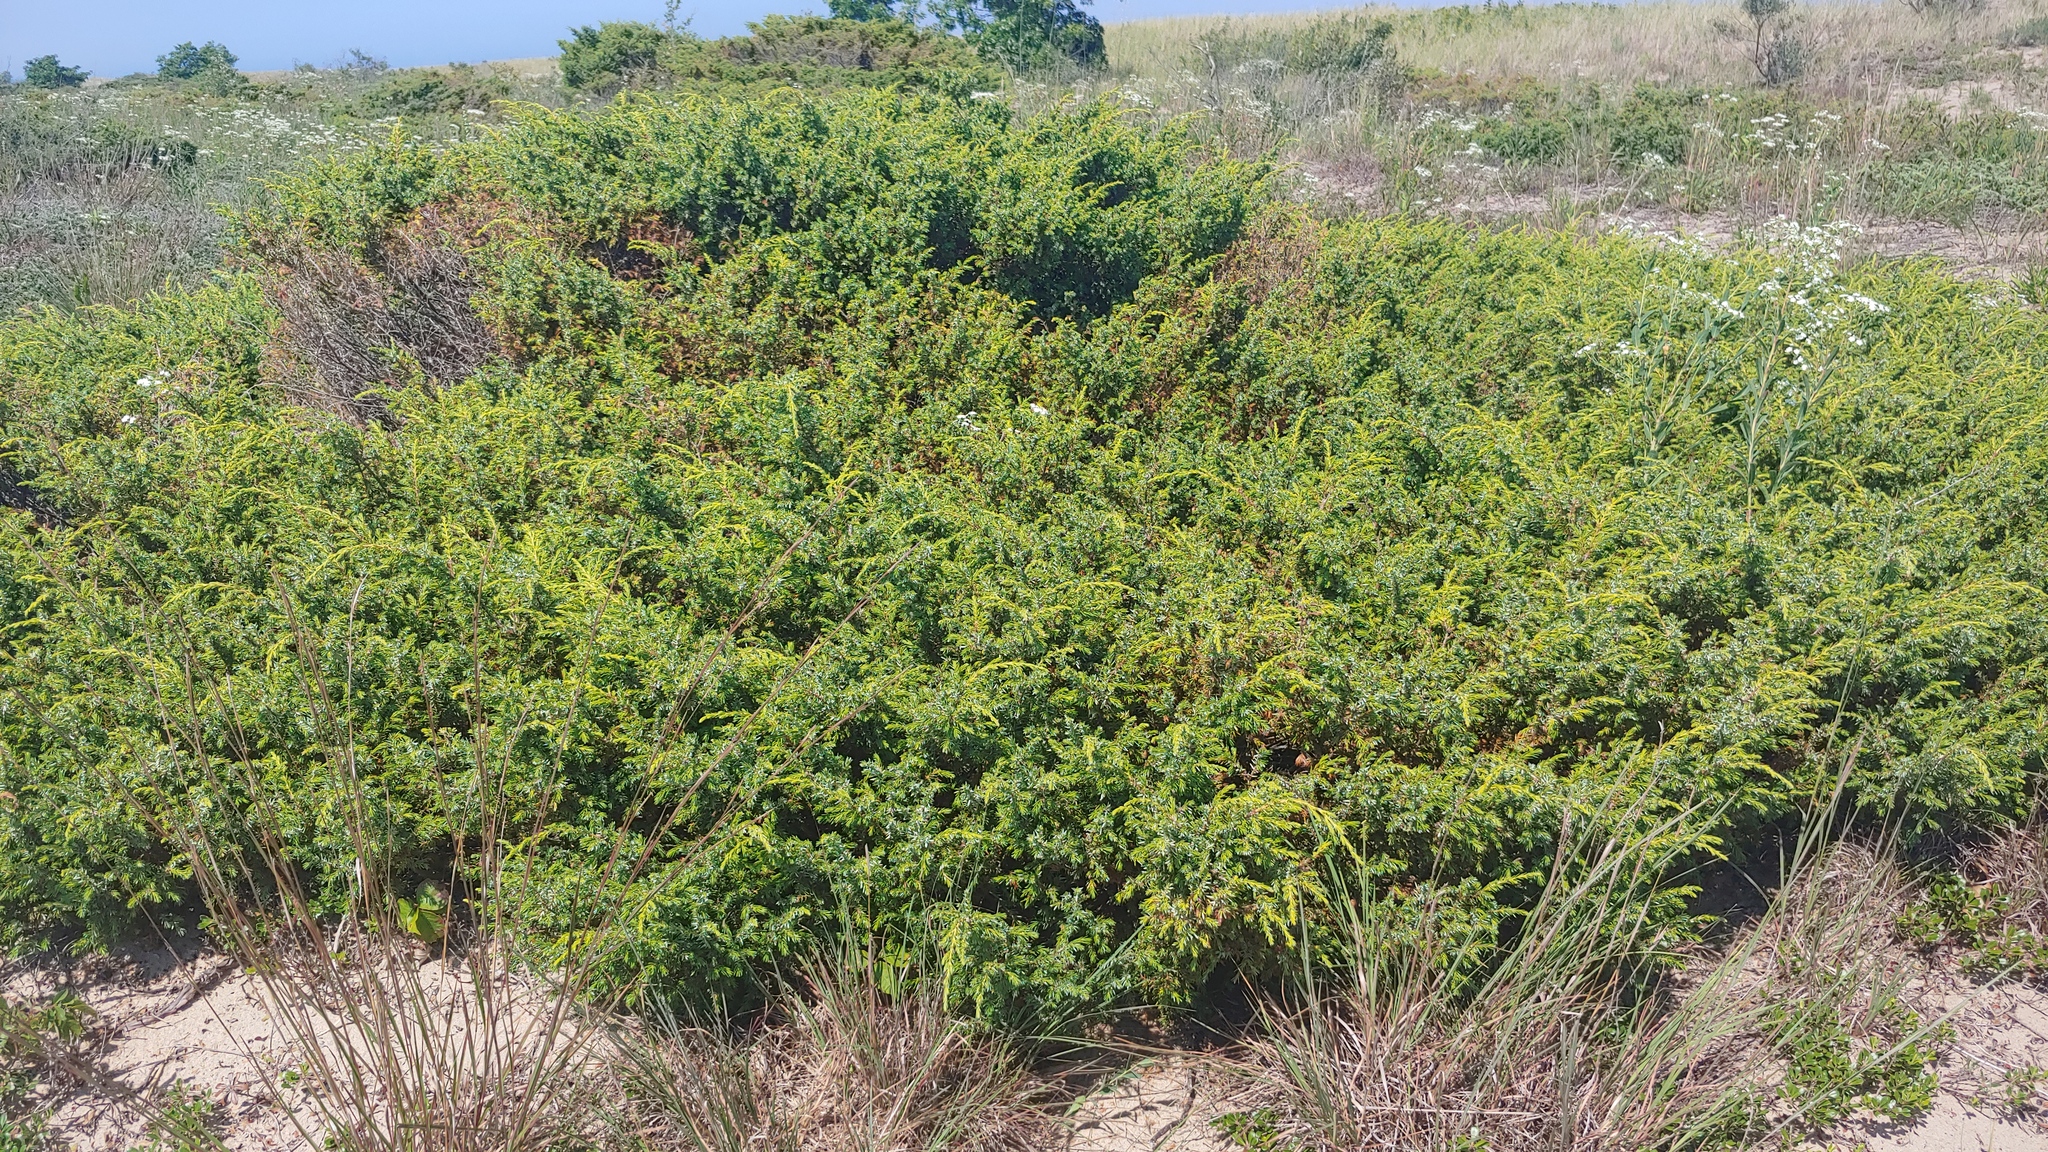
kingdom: Plantae
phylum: Tracheophyta
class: Pinopsida
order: Pinales
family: Cupressaceae
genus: Juniperus
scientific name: Juniperus communis
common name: Common juniper
